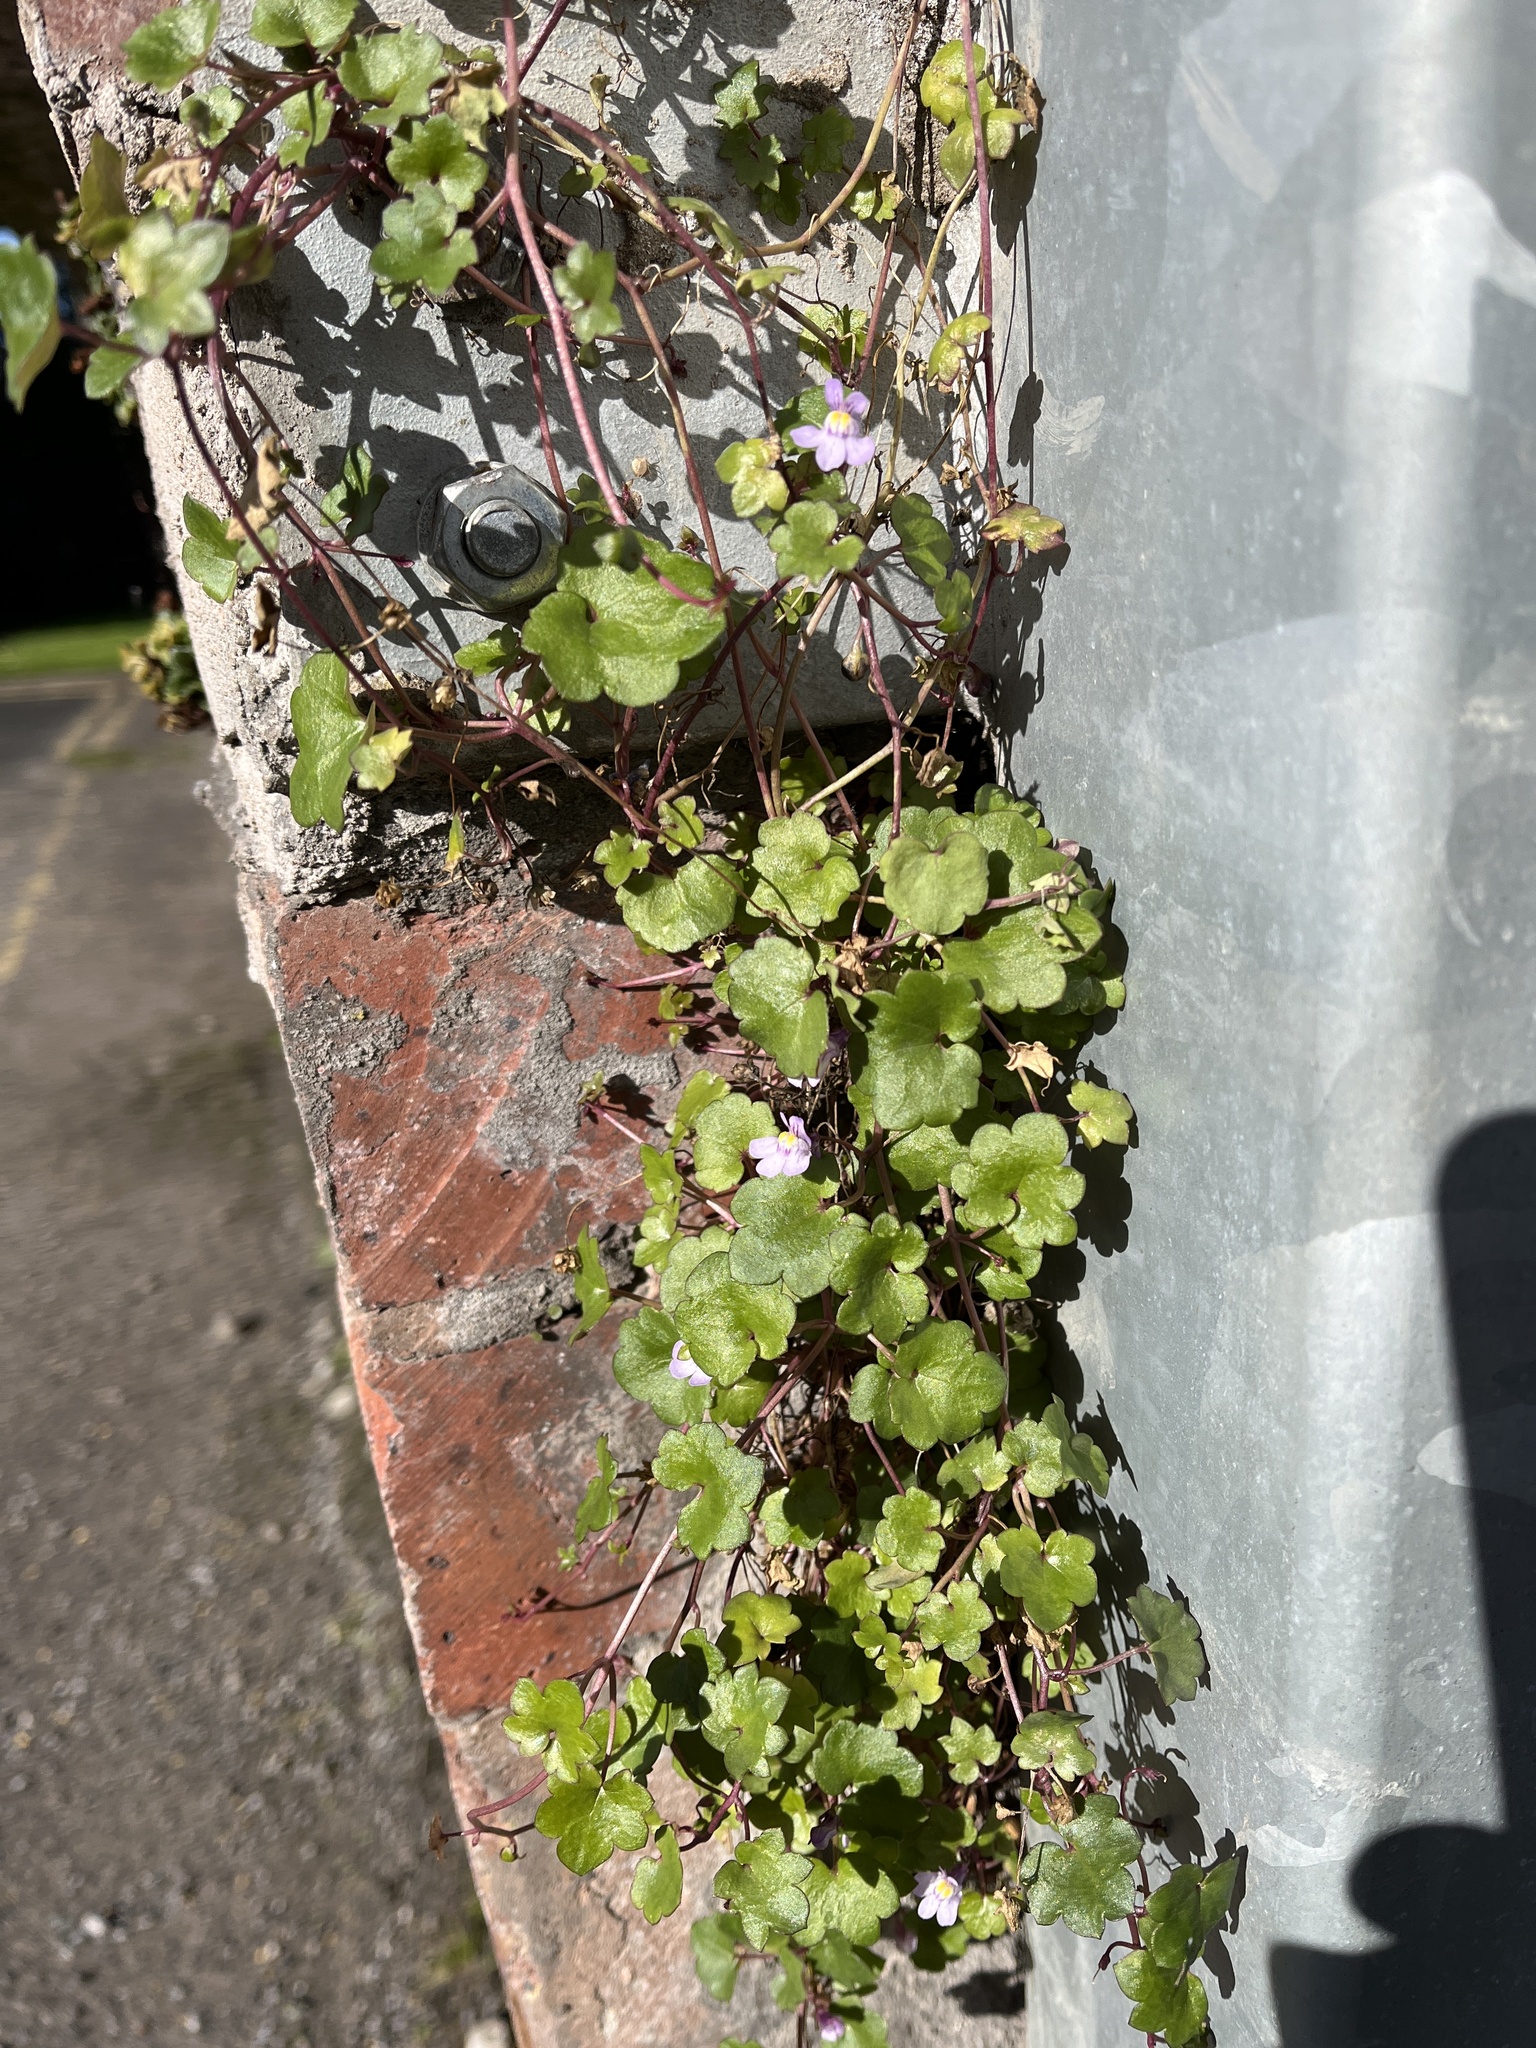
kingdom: Plantae
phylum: Tracheophyta
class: Magnoliopsida
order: Lamiales
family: Plantaginaceae
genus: Cymbalaria
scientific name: Cymbalaria muralis
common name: Ivy-leaved toadflax
